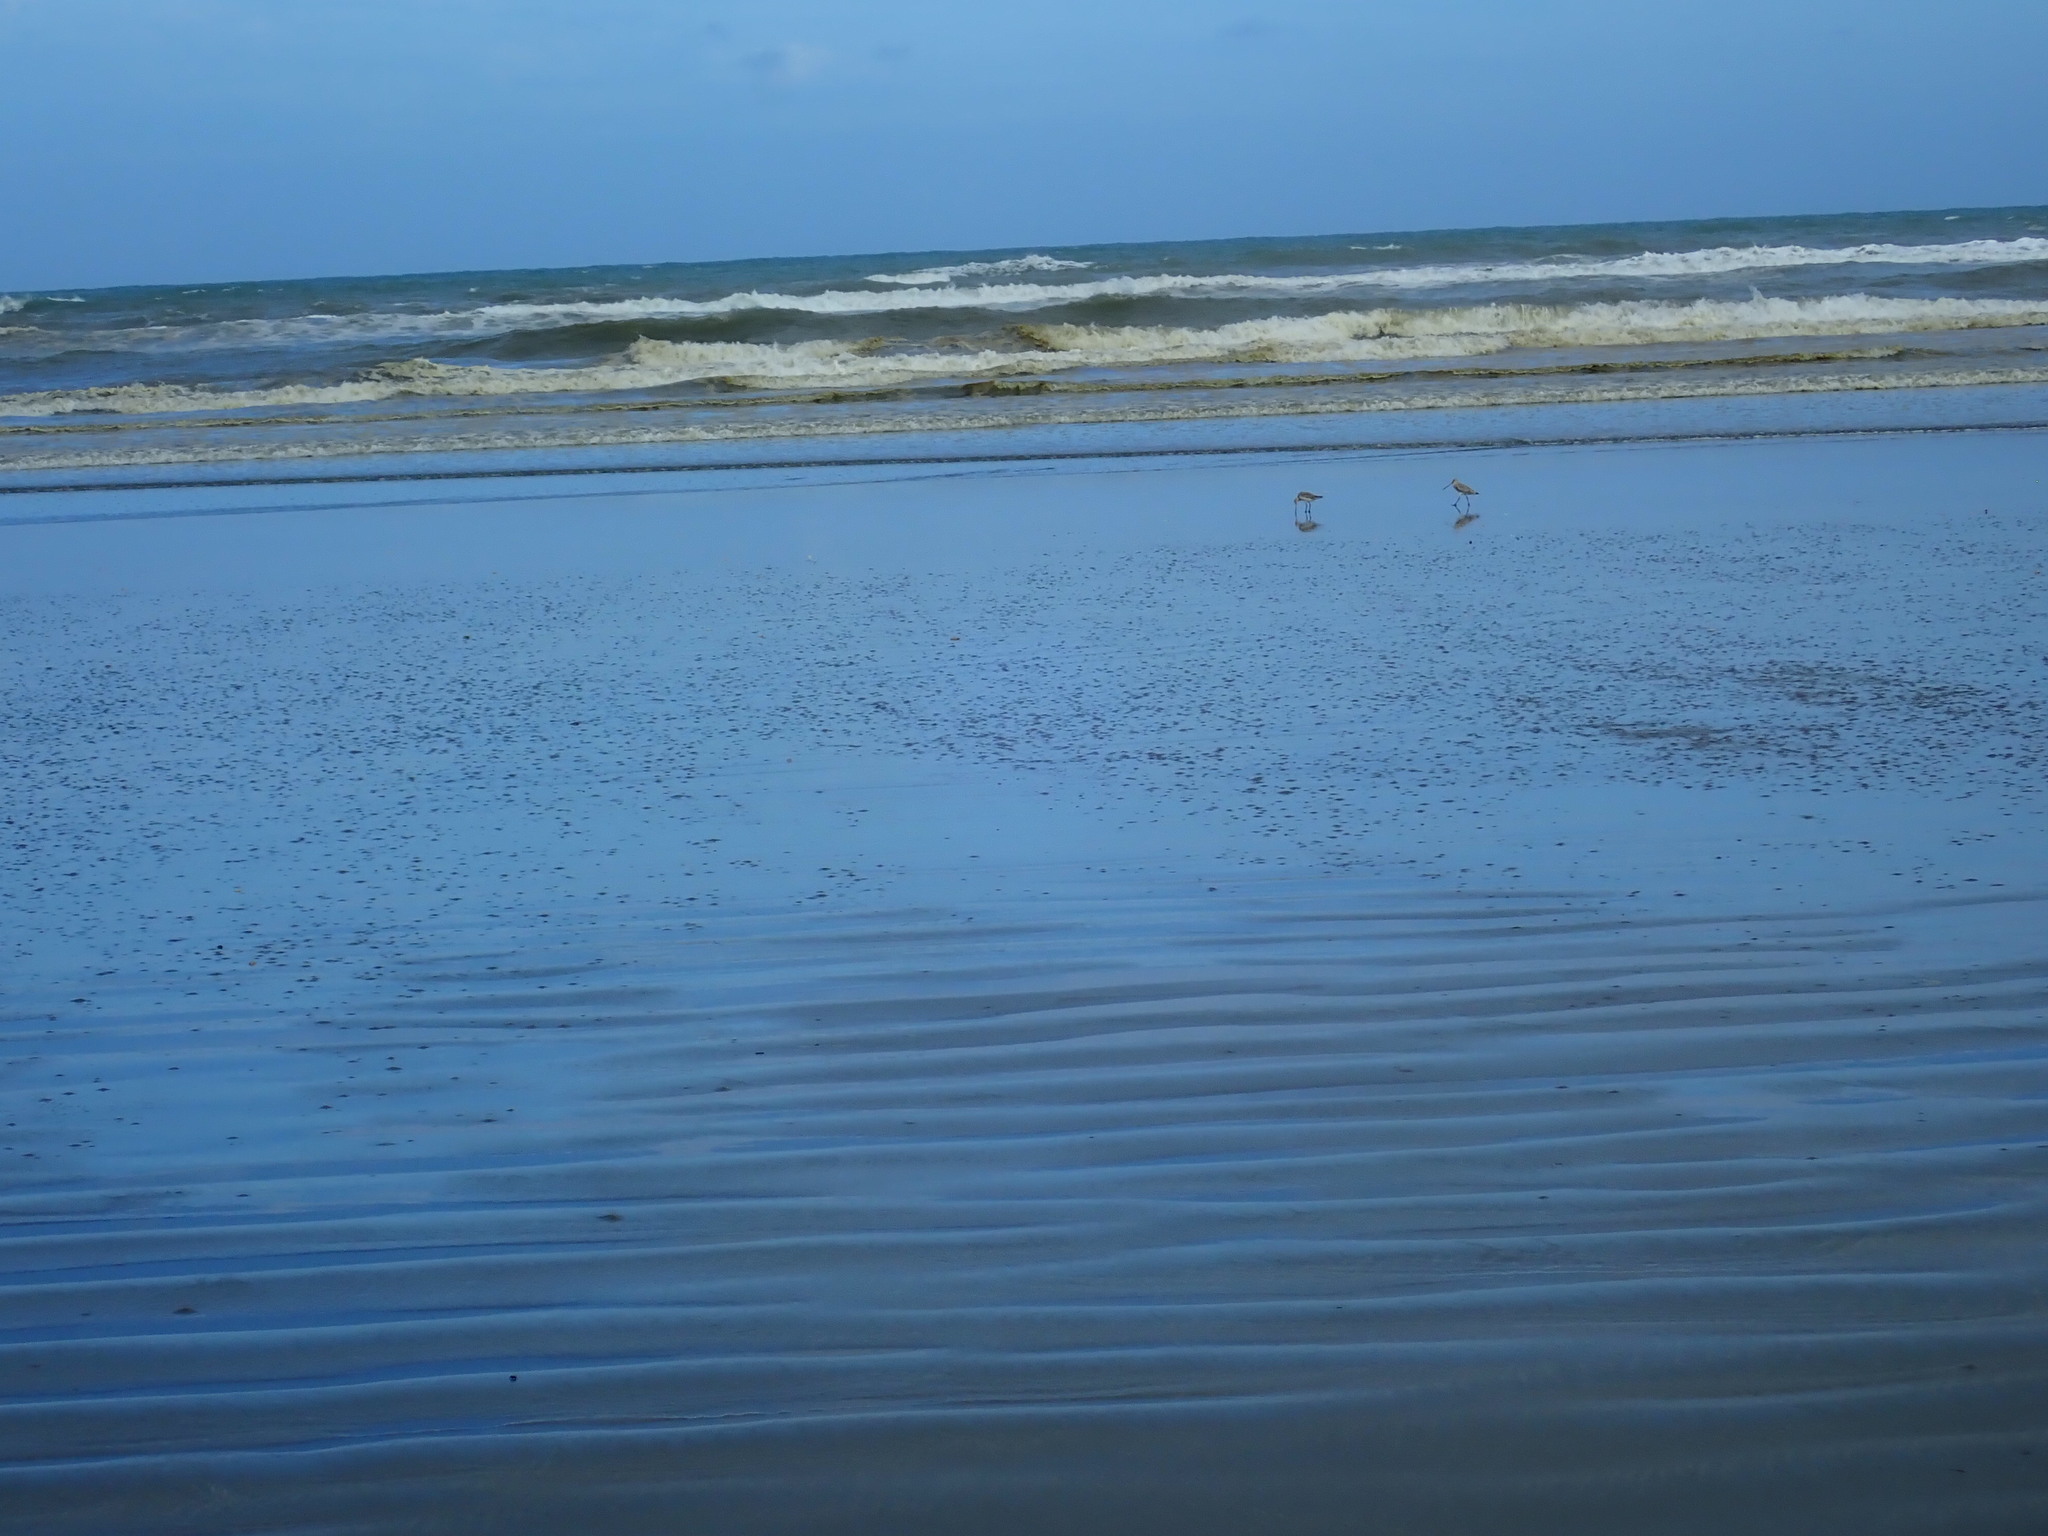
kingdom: Animalia
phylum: Chordata
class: Aves
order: Charadriiformes
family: Scolopacidae
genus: Limosa
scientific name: Limosa lapponica
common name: Bar-tailed godwit
